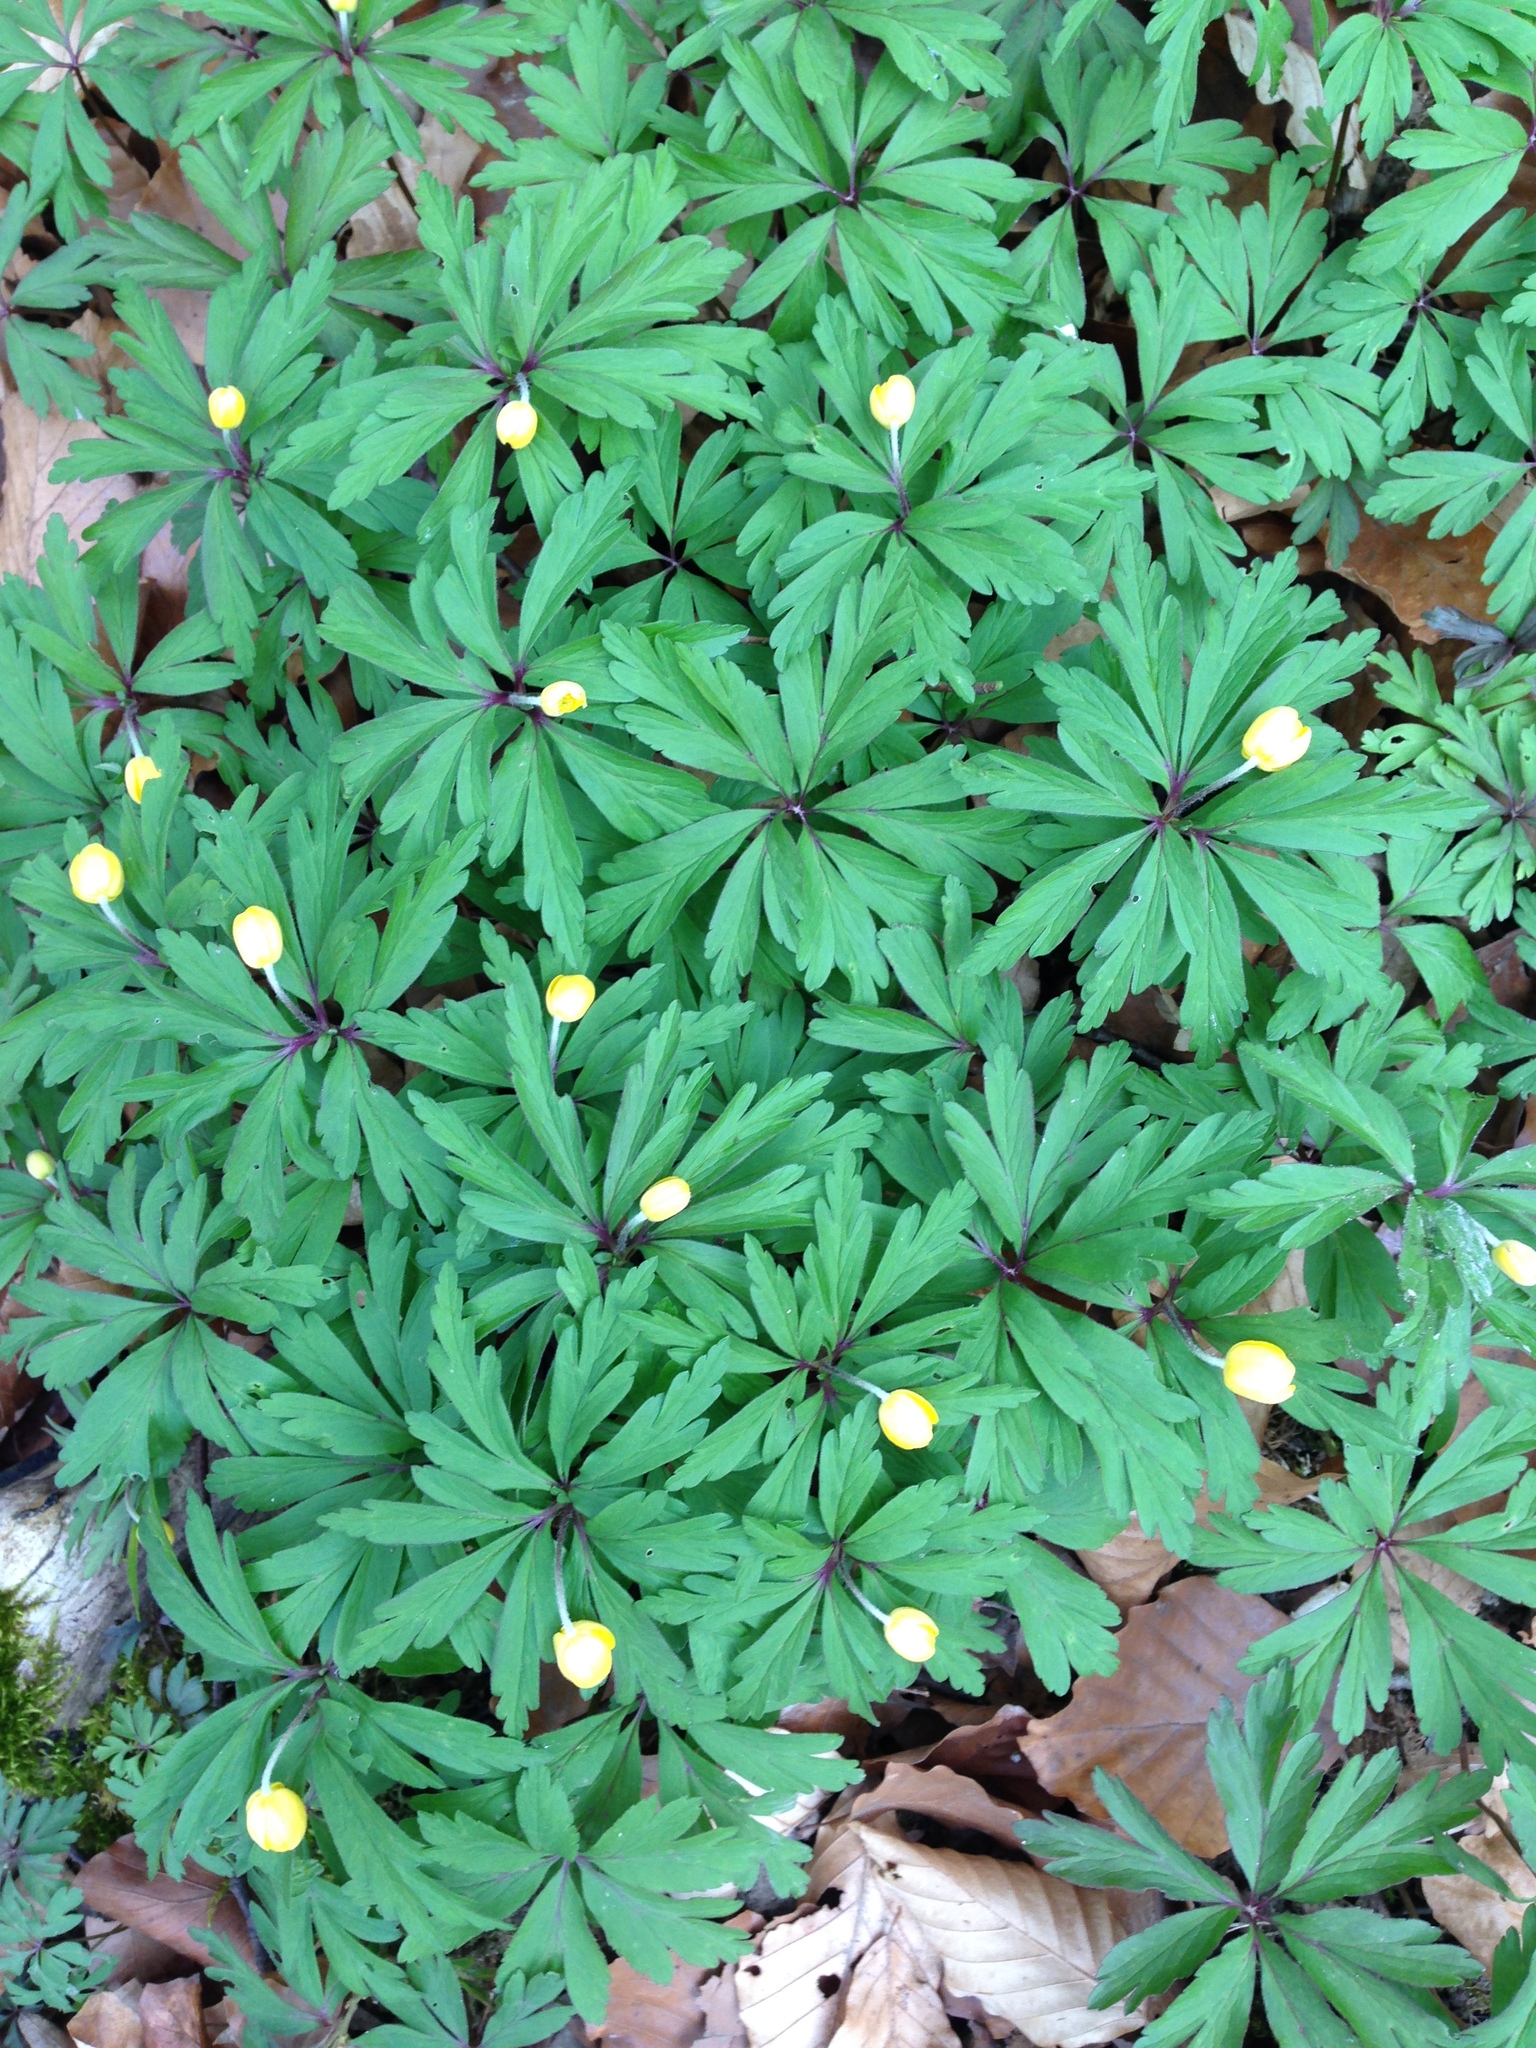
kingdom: Plantae
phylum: Tracheophyta
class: Magnoliopsida
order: Ranunculales
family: Ranunculaceae
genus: Anemone
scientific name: Anemone ranunculoides
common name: Yellow anemone
